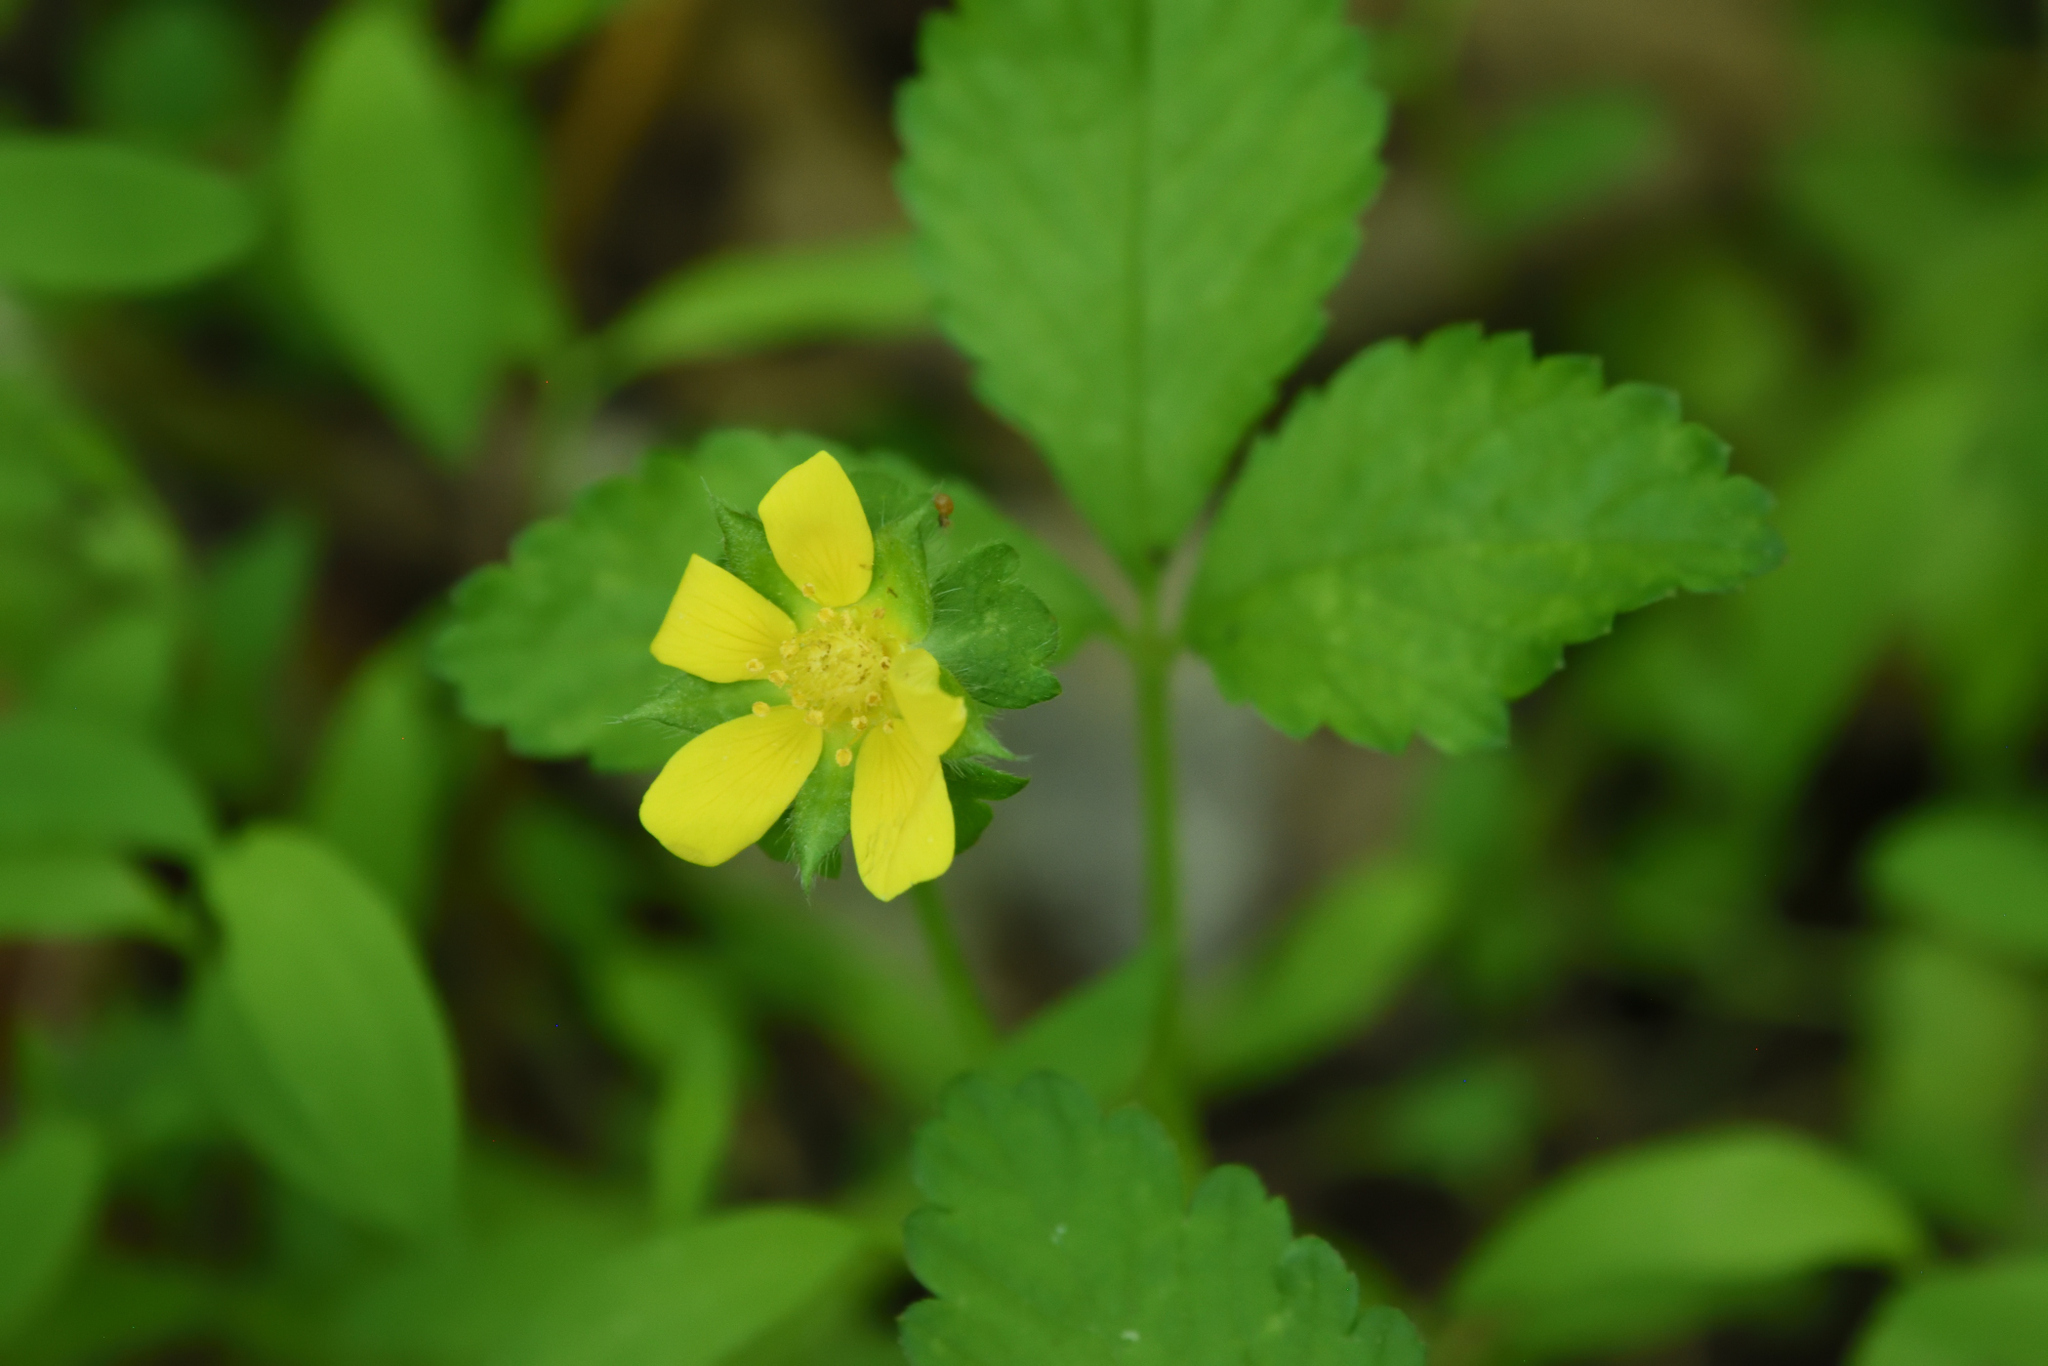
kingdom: Plantae
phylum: Tracheophyta
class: Magnoliopsida
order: Rosales
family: Rosaceae
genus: Potentilla
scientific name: Potentilla indica
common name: Yellow-flowered strawberry
